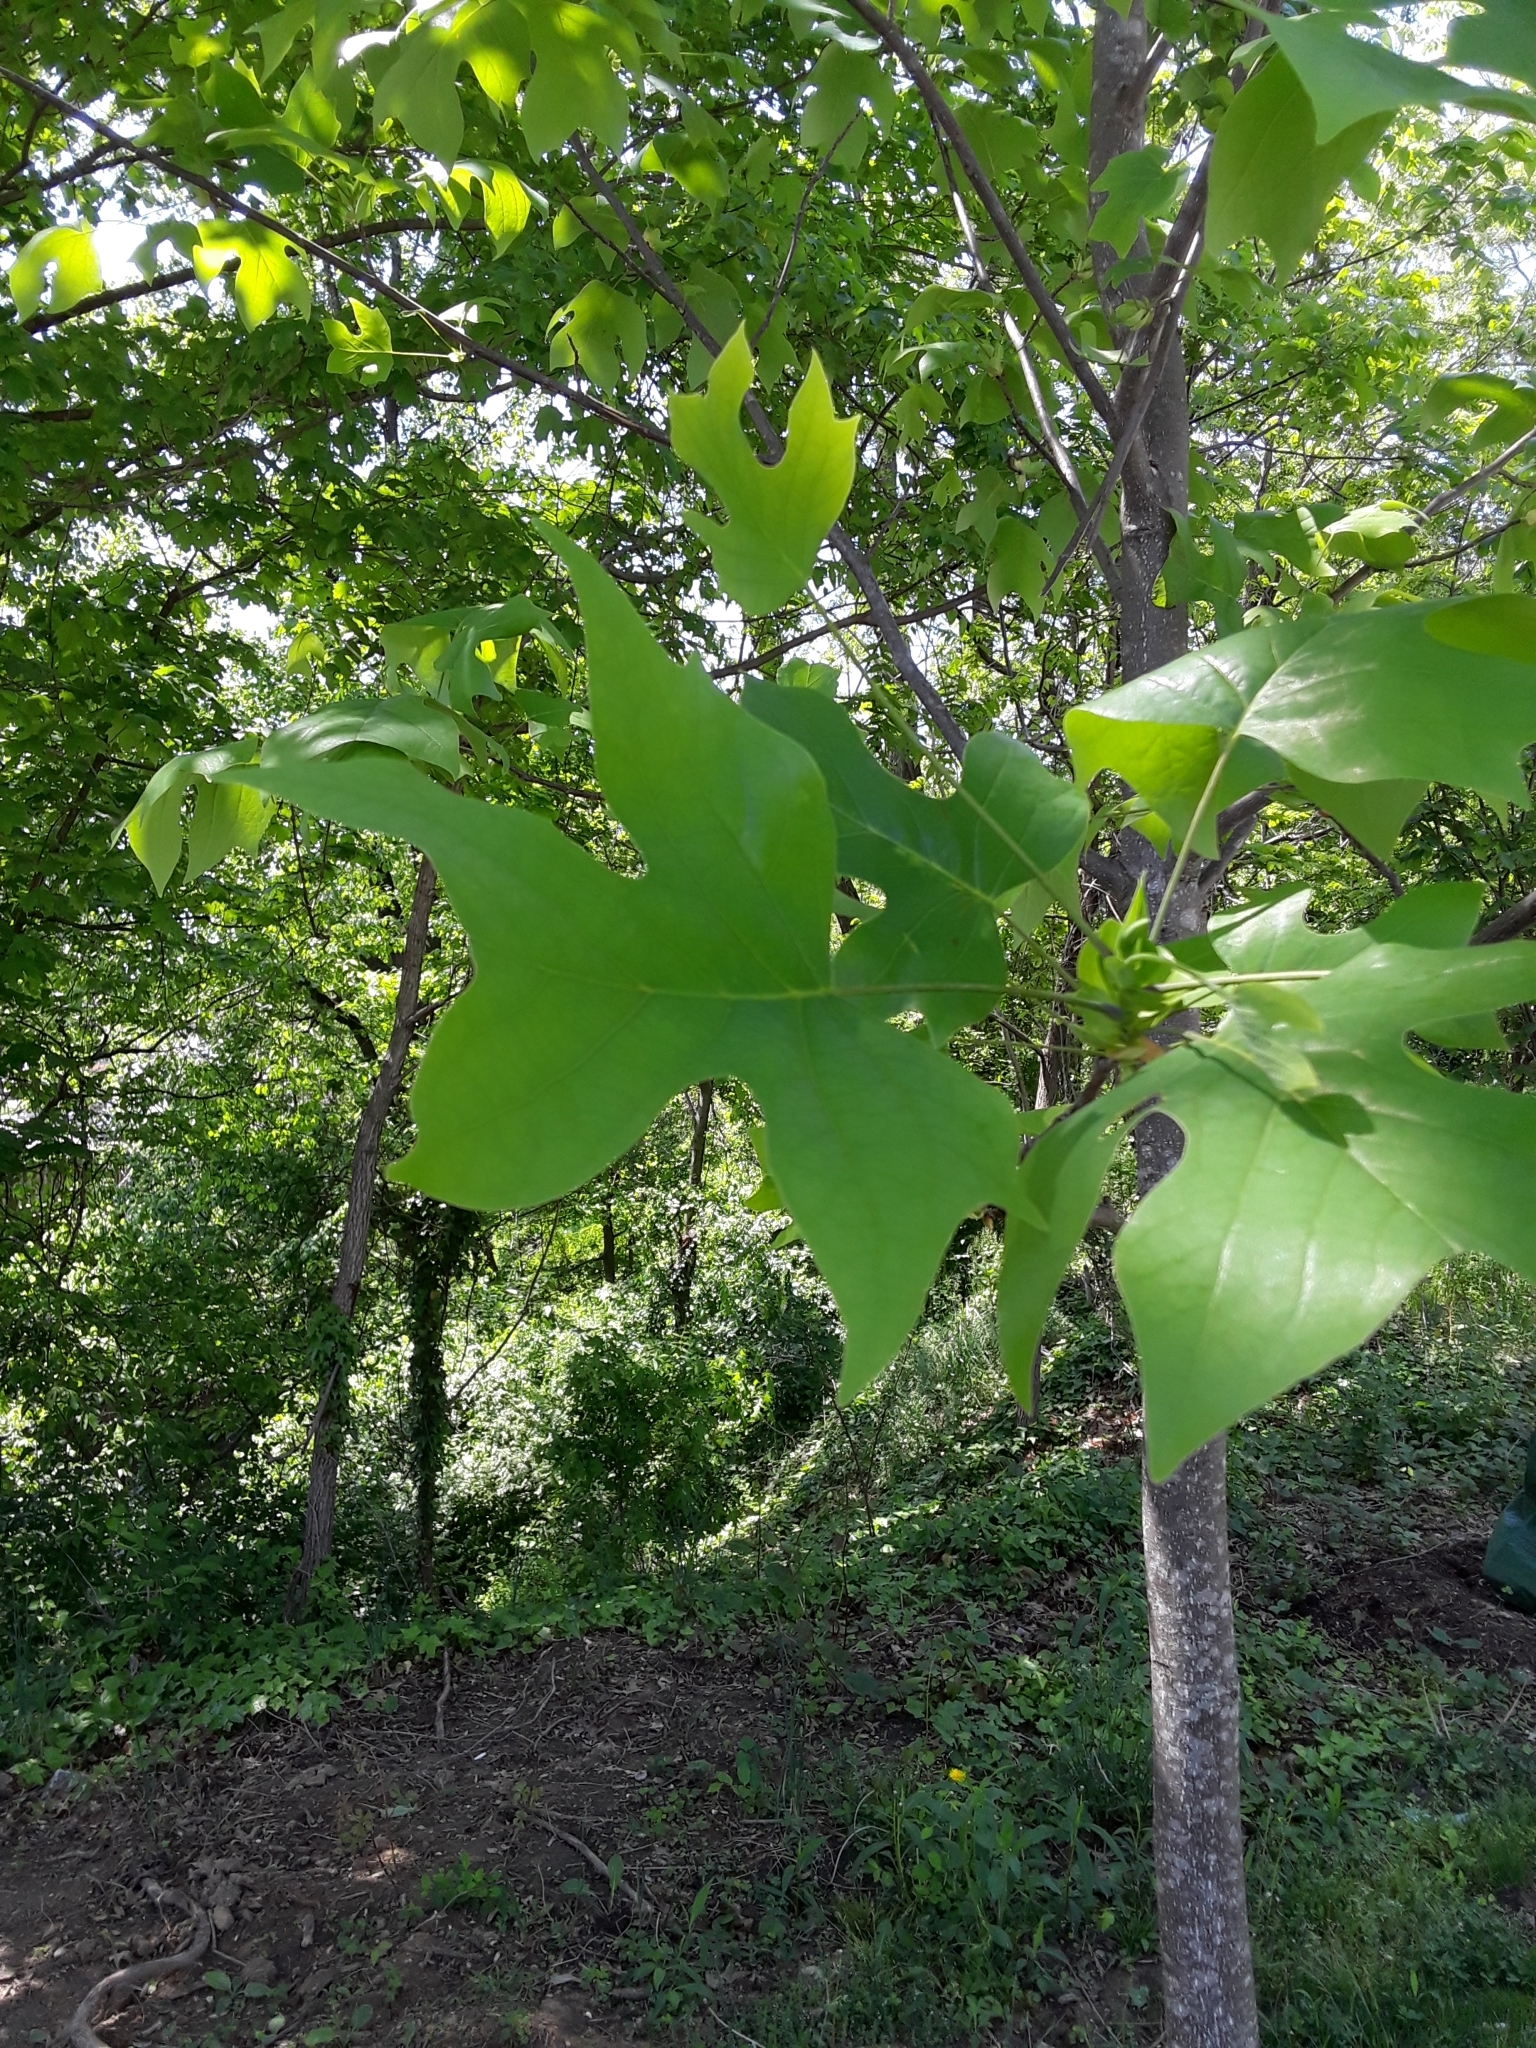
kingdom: Plantae
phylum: Tracheophyta
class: Magnoliopsida
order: Magnoliales
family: Magnoliaceae
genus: Liriodendron
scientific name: Liriodendron tulipifera
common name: Tulip tree
